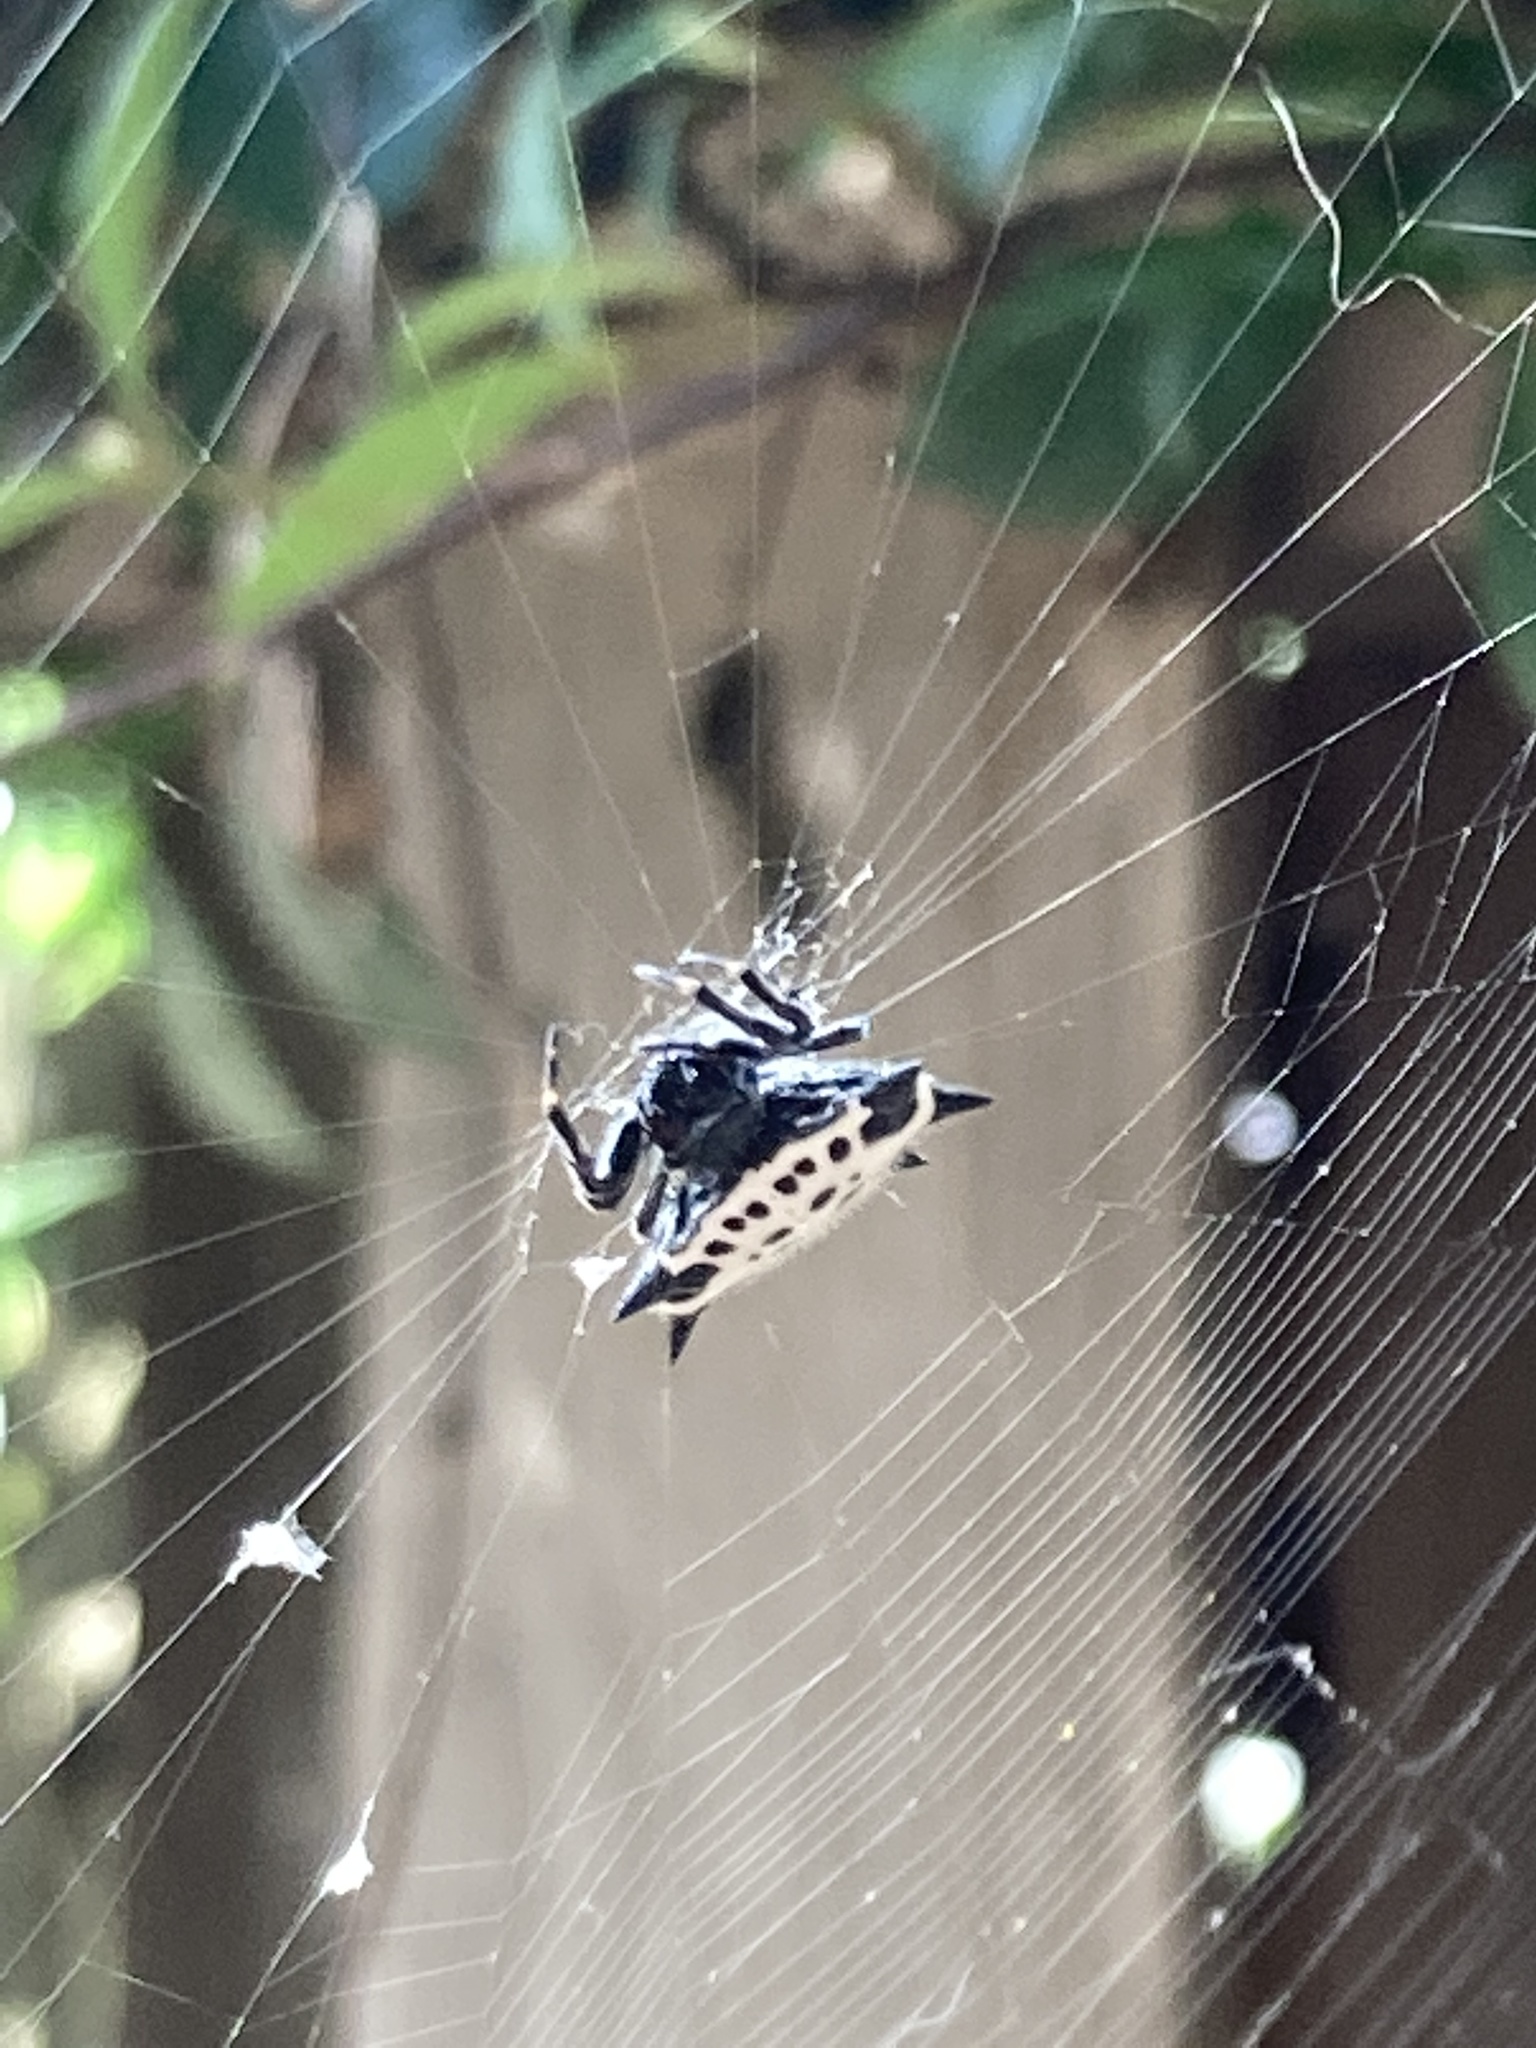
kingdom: Animalia
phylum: Arthropoda
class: Arachnida
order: Araneae
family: Araneidae
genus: Gasteracantha
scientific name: Gasteracantha cancriformis
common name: Orb weavers
